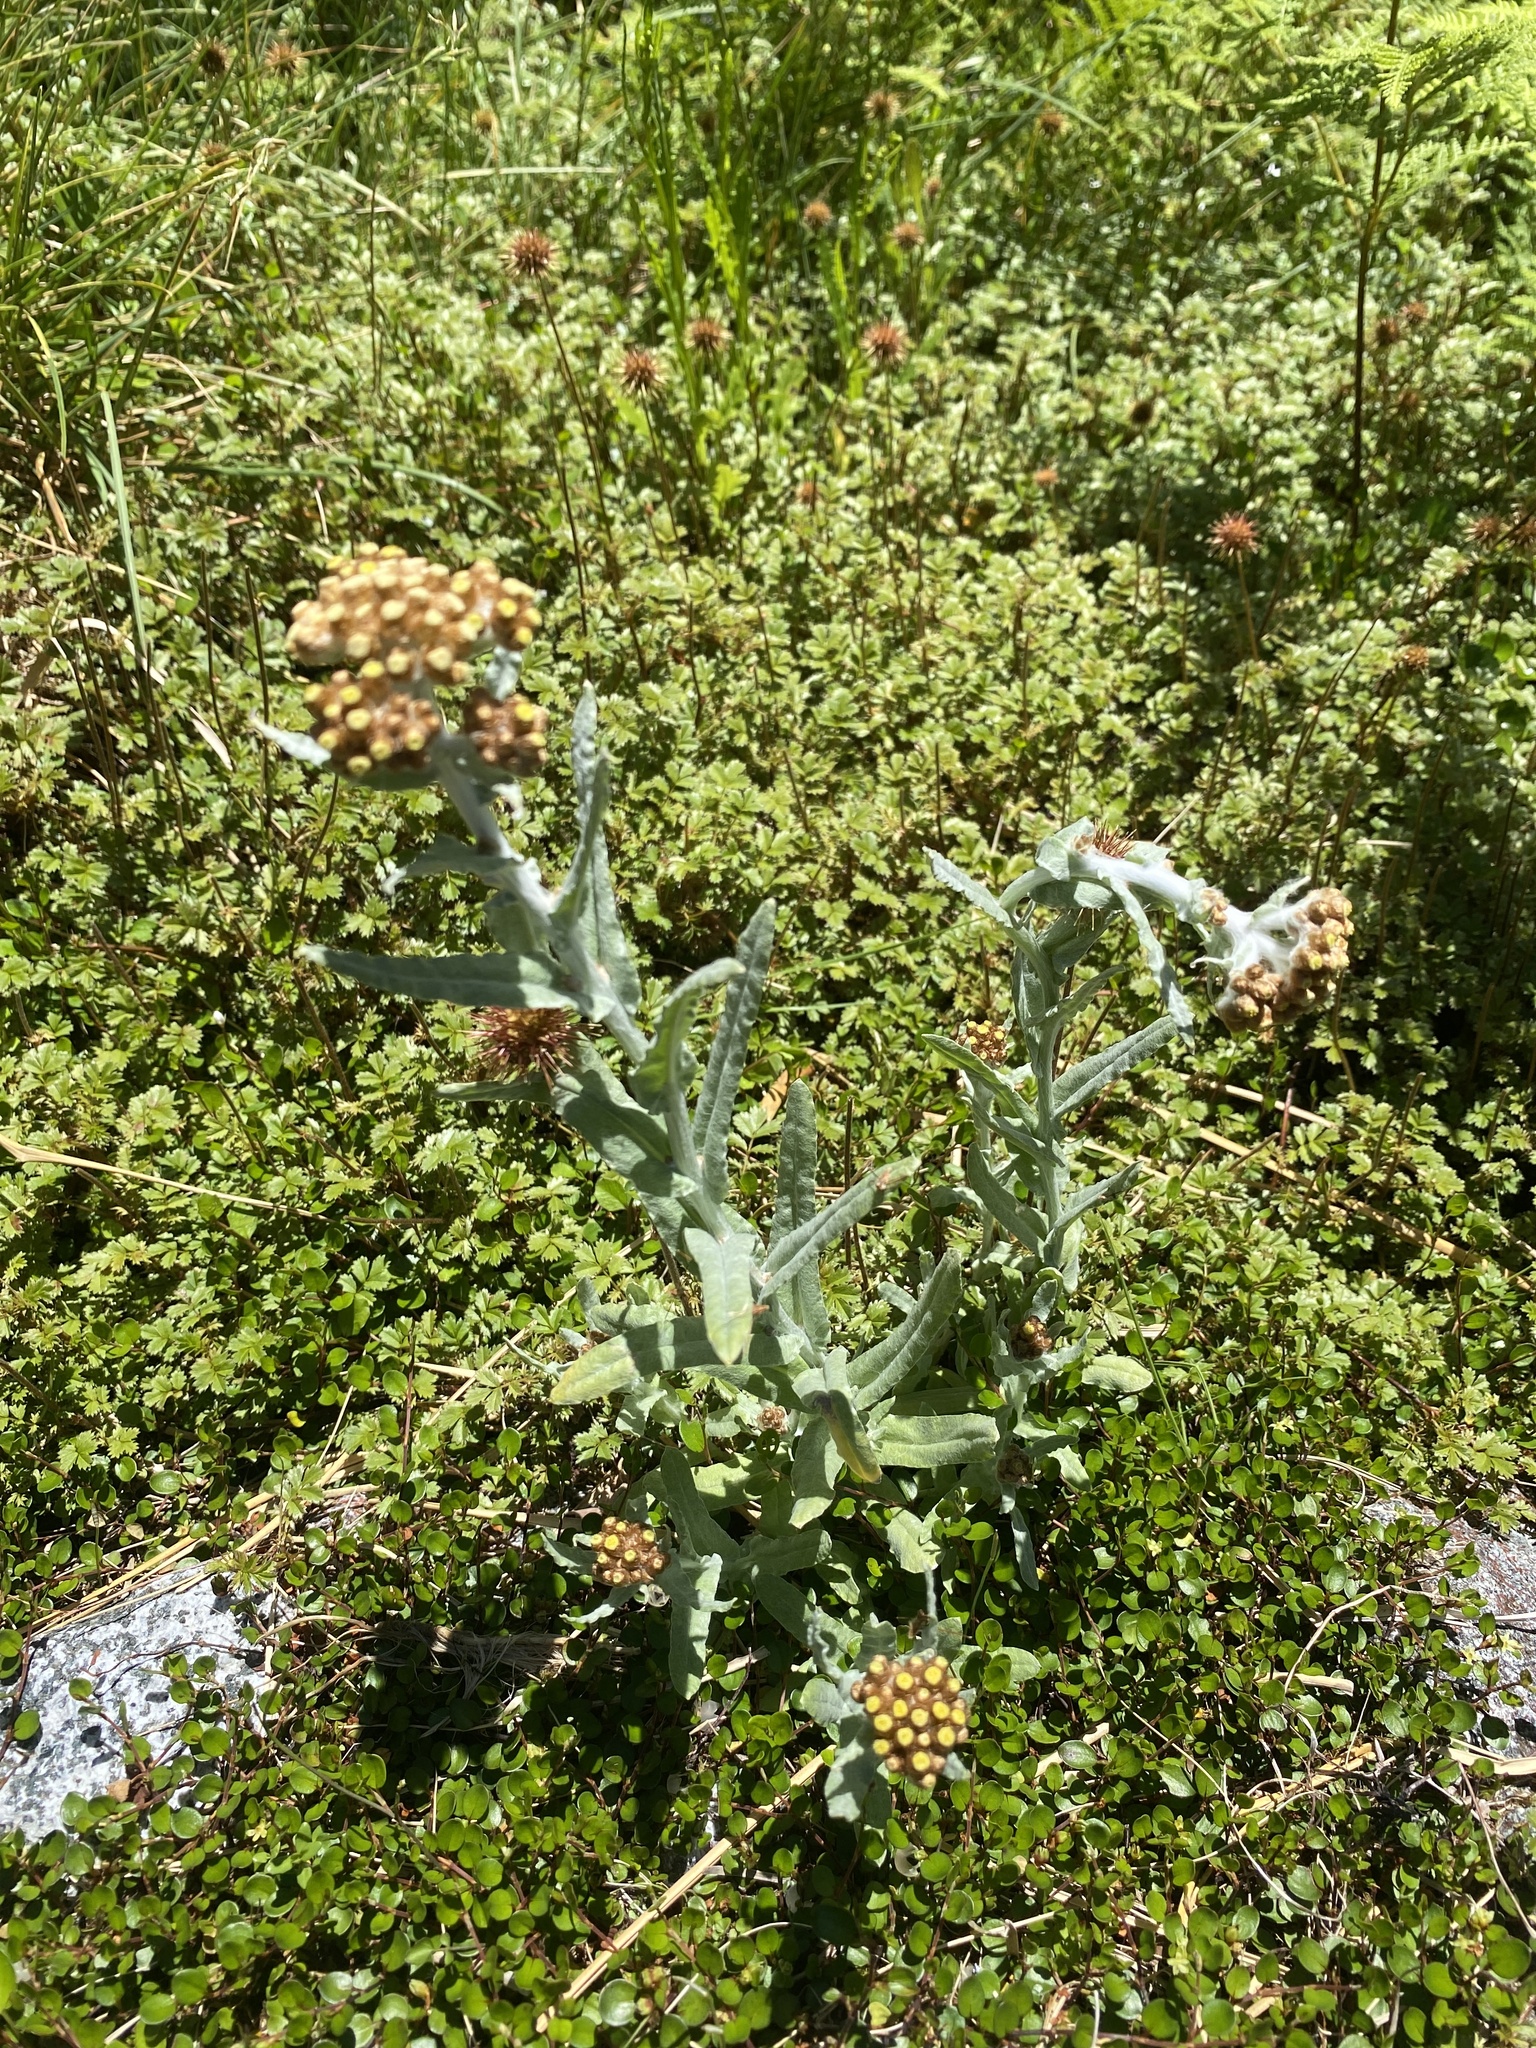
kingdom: Plantae
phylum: Tracheophyta
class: Magnoliopsida
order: Asterales
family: Asteraceae
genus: Pseudognaphalium
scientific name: Pseudognaphalium
